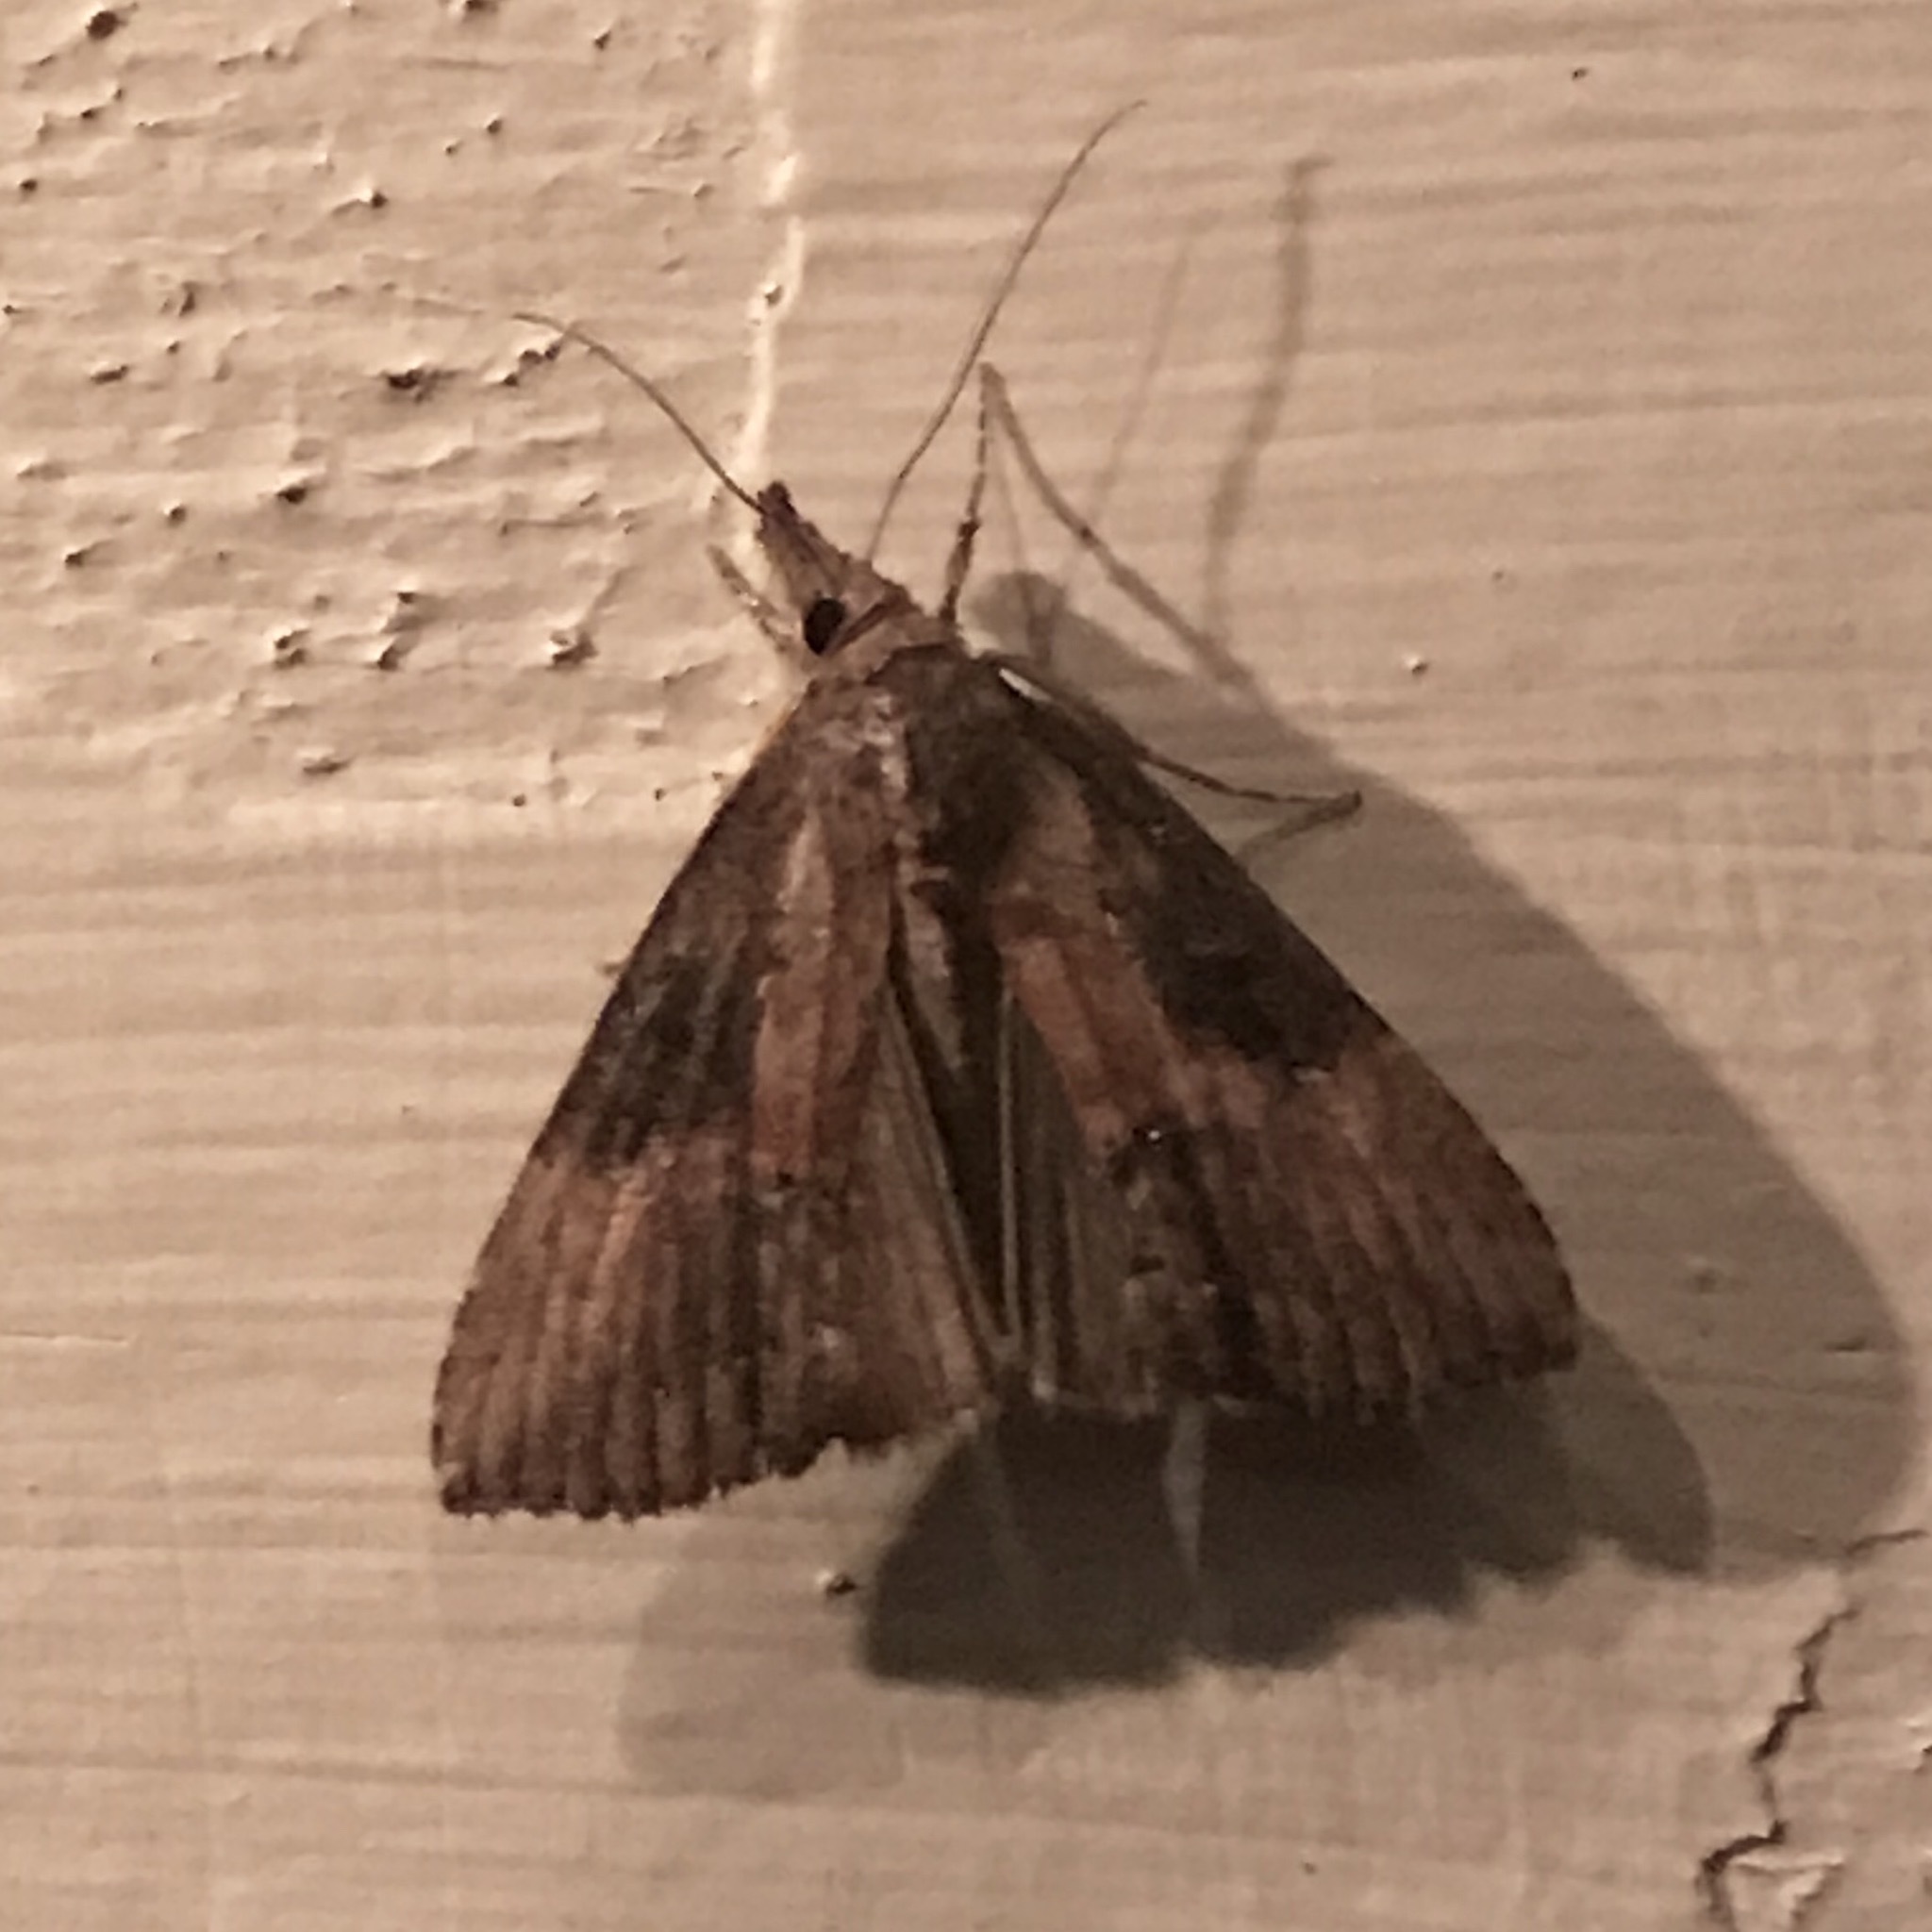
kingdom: Animalia
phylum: Arthropoda
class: Insecta
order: Lepidoptera
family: Erebidae
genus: Hypena
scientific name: Hypena scabra
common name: Green cloverworm
